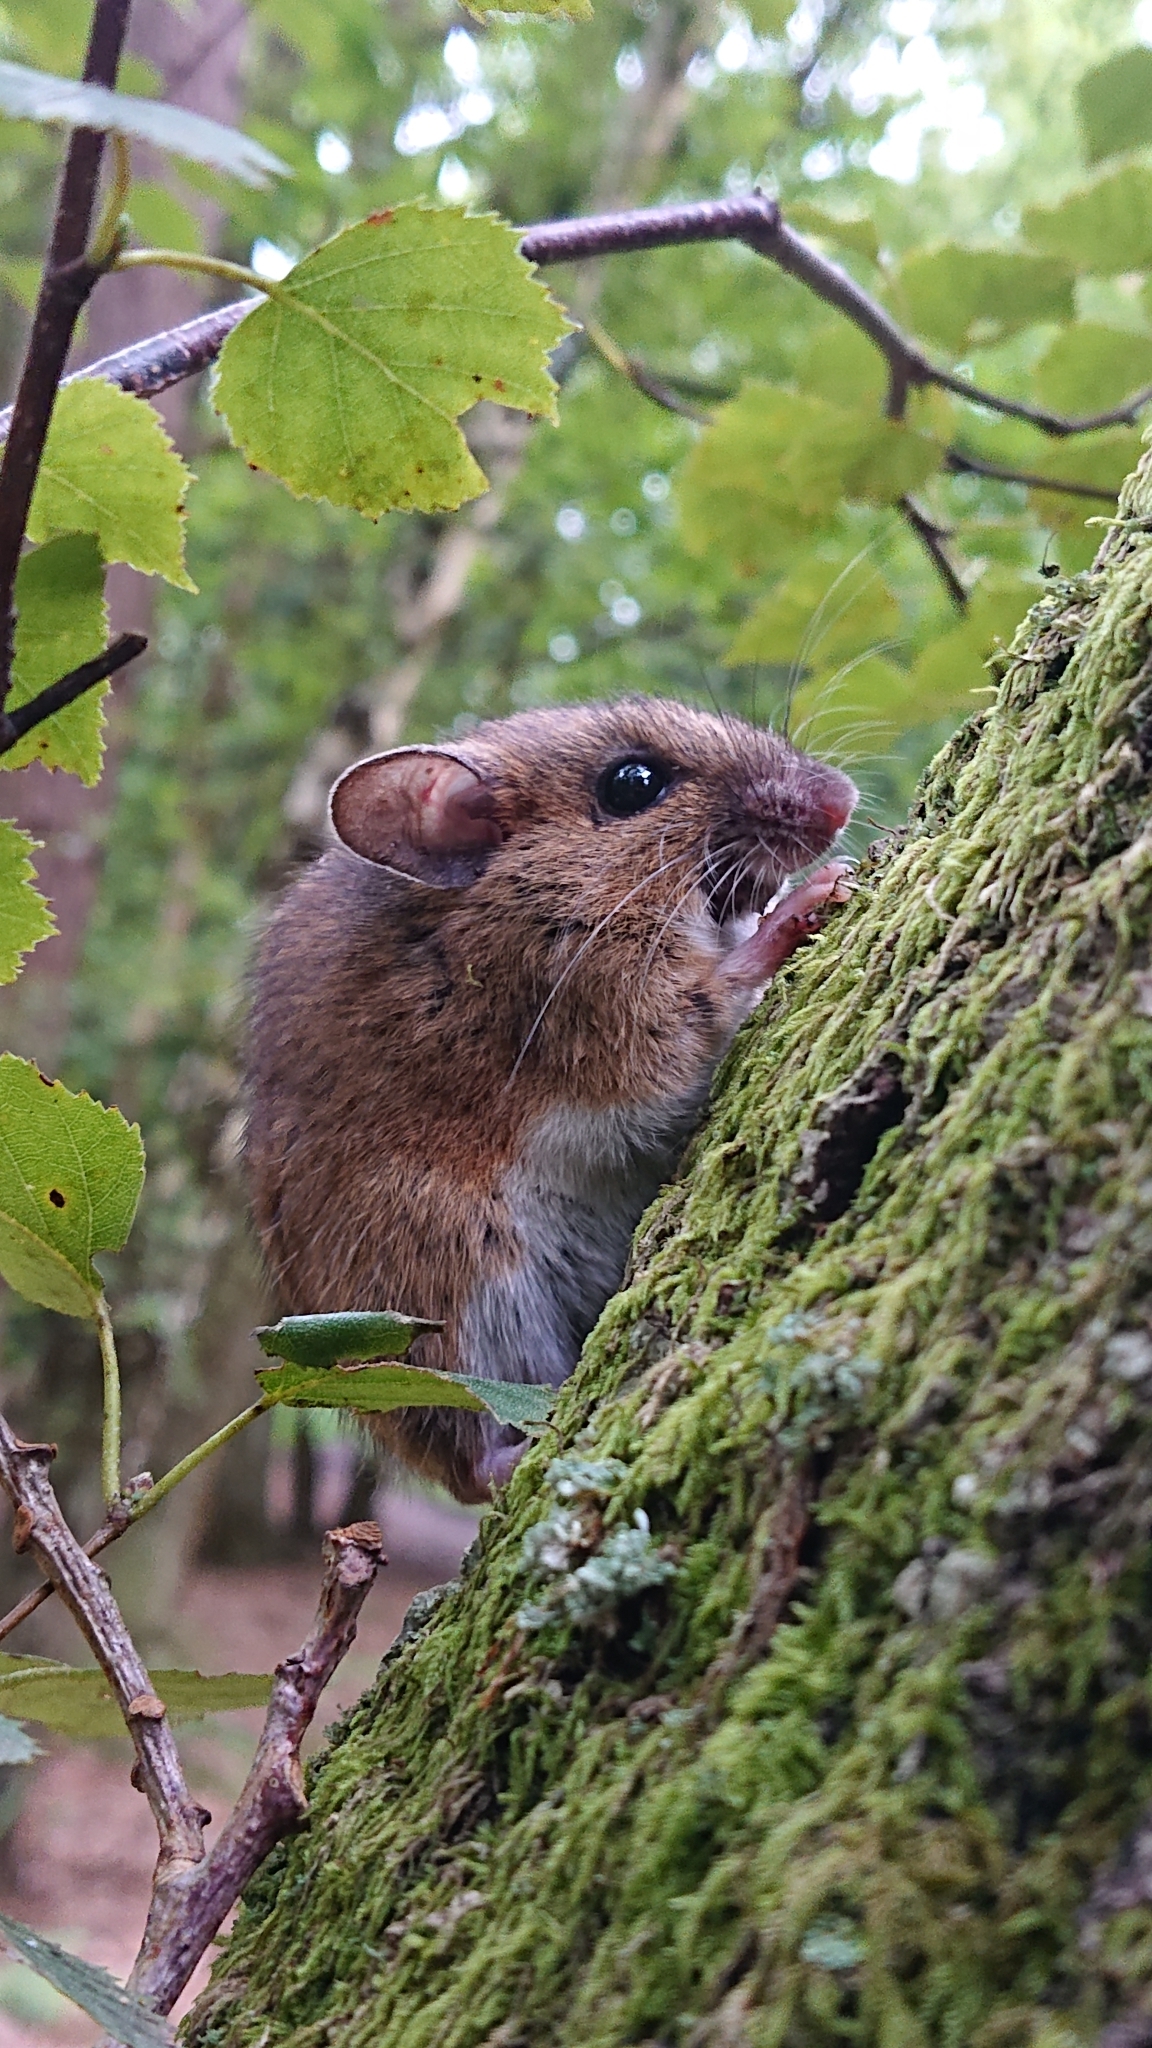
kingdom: Animalia
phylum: Chordata
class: Mammalia
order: Rodentia
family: Muridae
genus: Apodemus
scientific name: Apodemus sylvaticus
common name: Wood mouse
